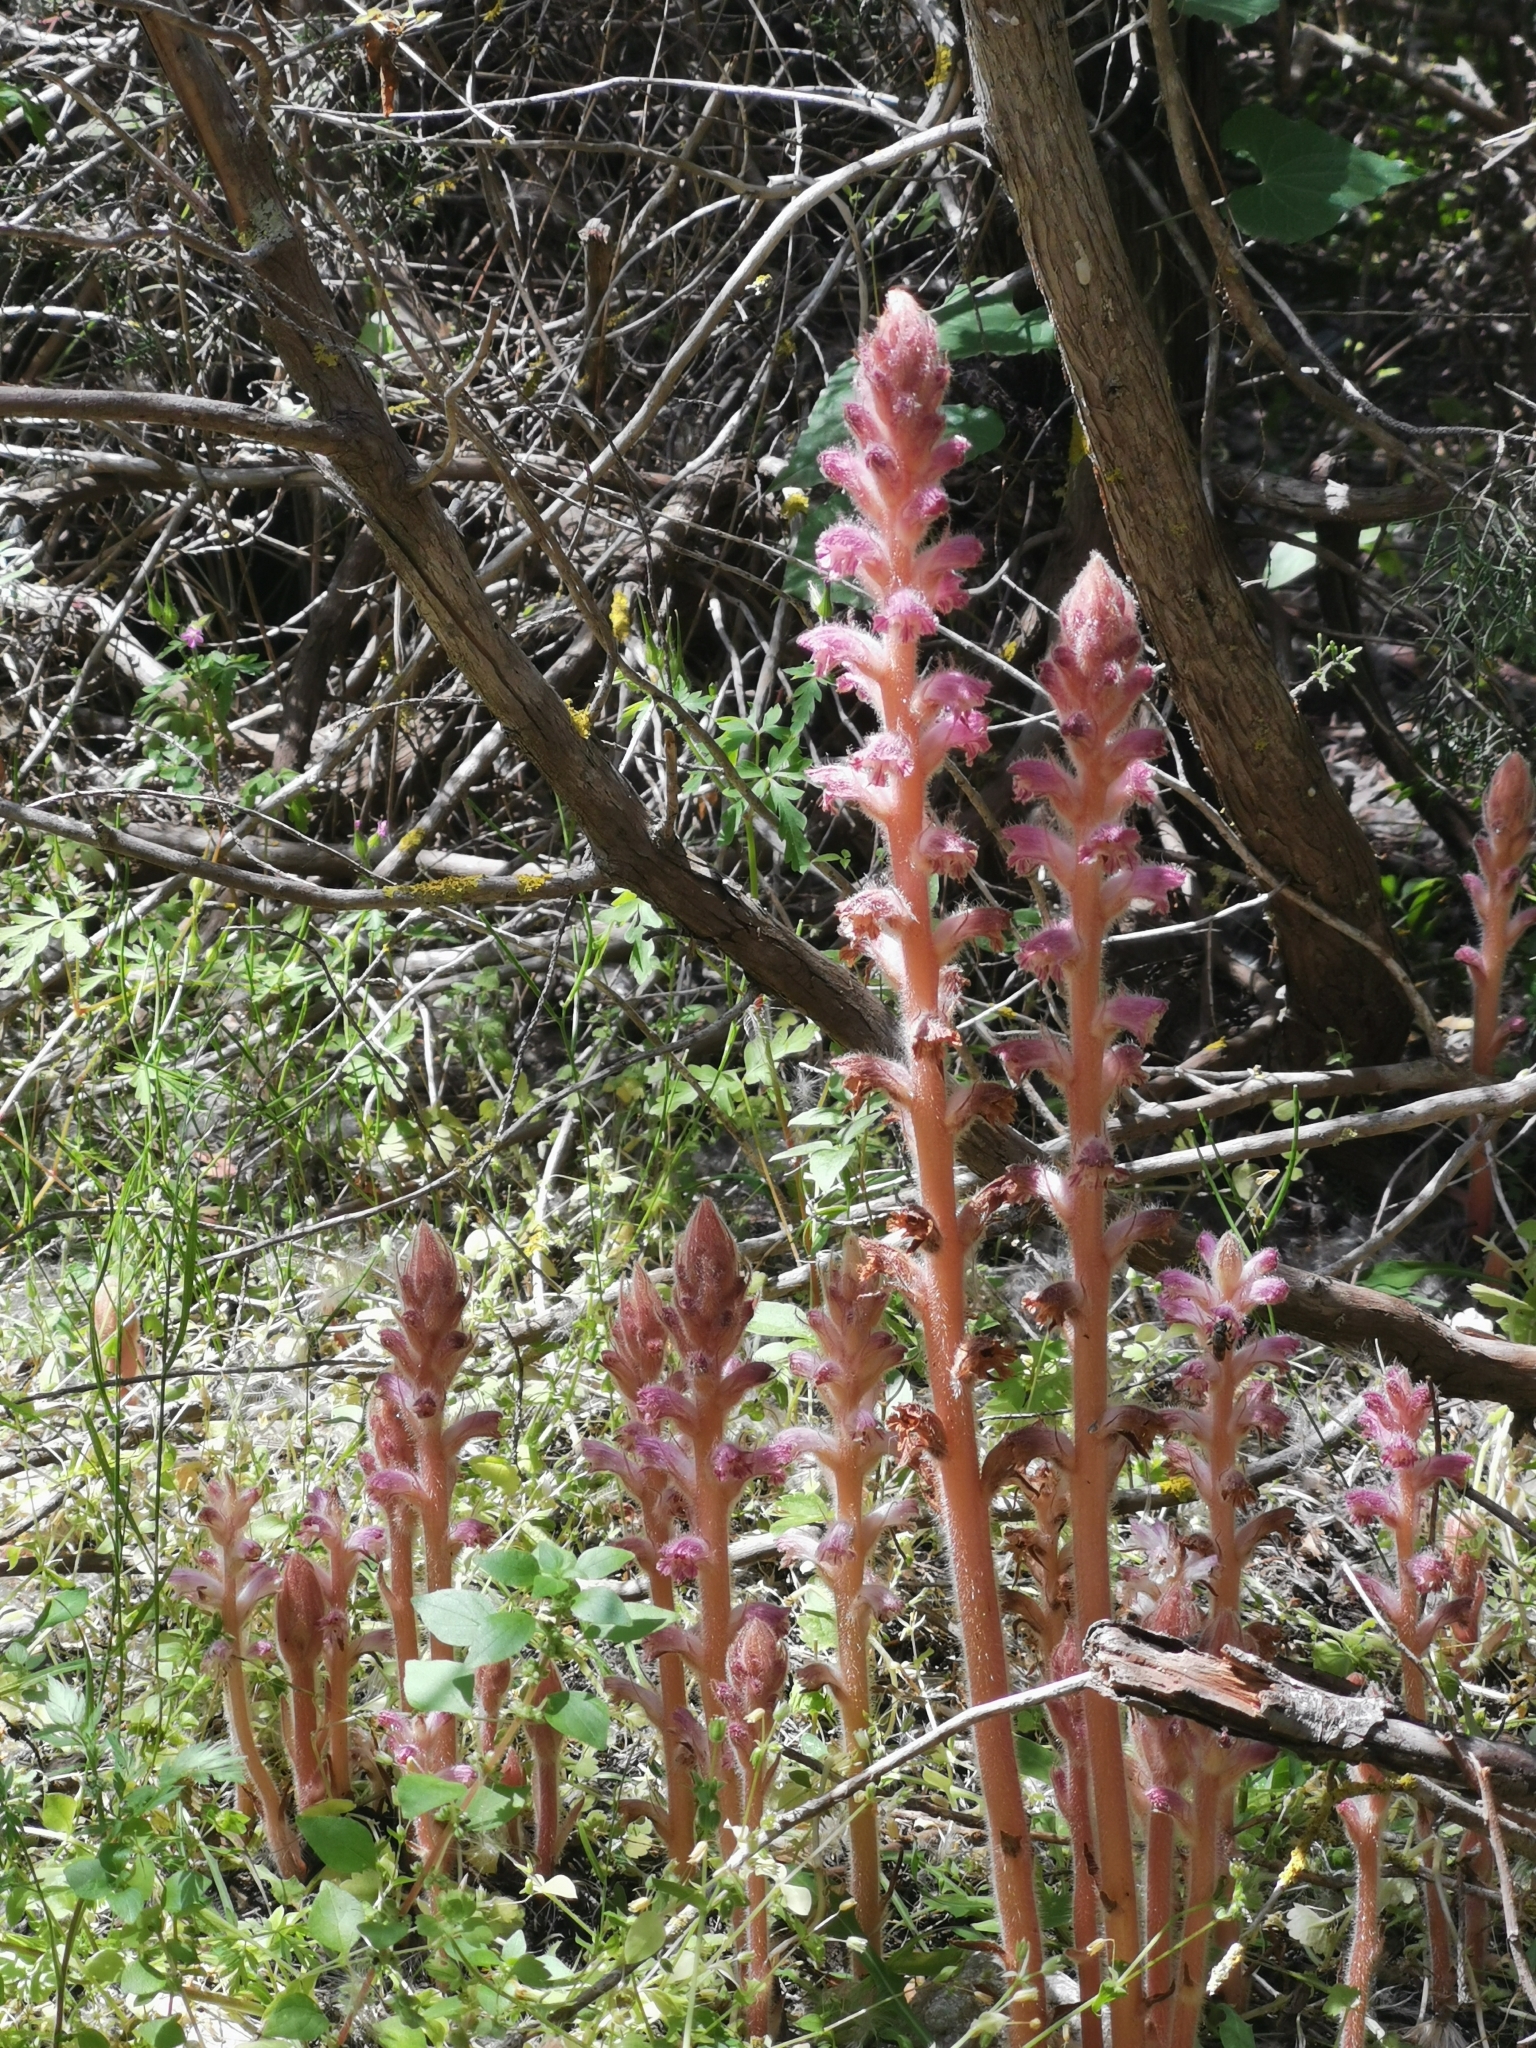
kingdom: Plantae
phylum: Tracheophyta
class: Magnoliopsida
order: Lamiales
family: Orobanchaceae
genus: Orobanche
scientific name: Orobanche pubescens
